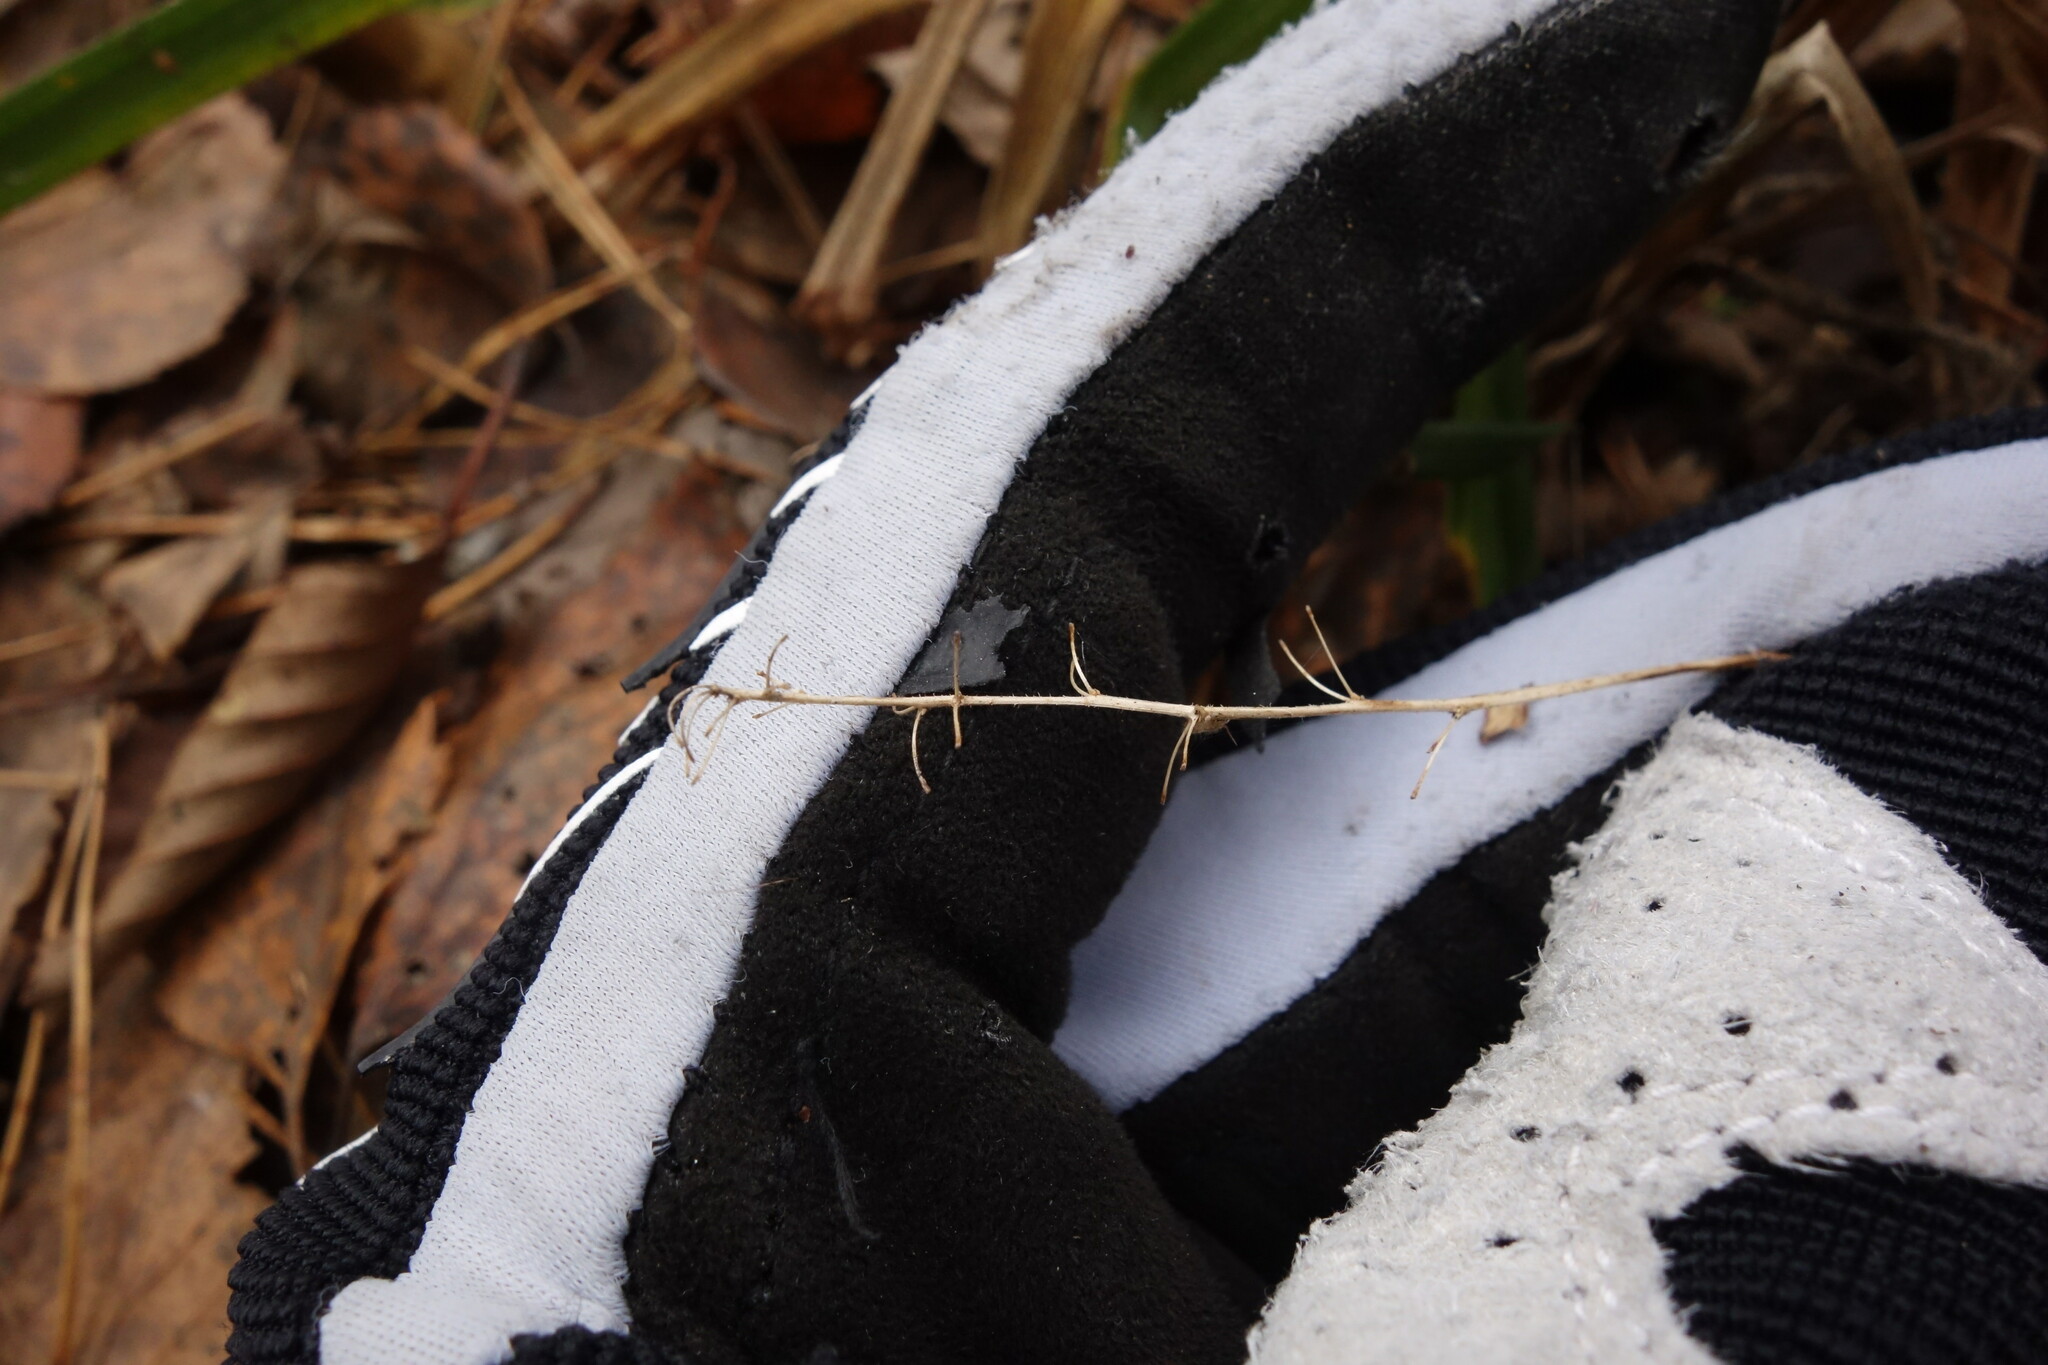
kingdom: Plantae
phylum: Tracheophyta
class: Liliopsida
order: Asparagales
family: Asparagaceae
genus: Maianthemum
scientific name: Maianthemum bifolium
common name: May lily
